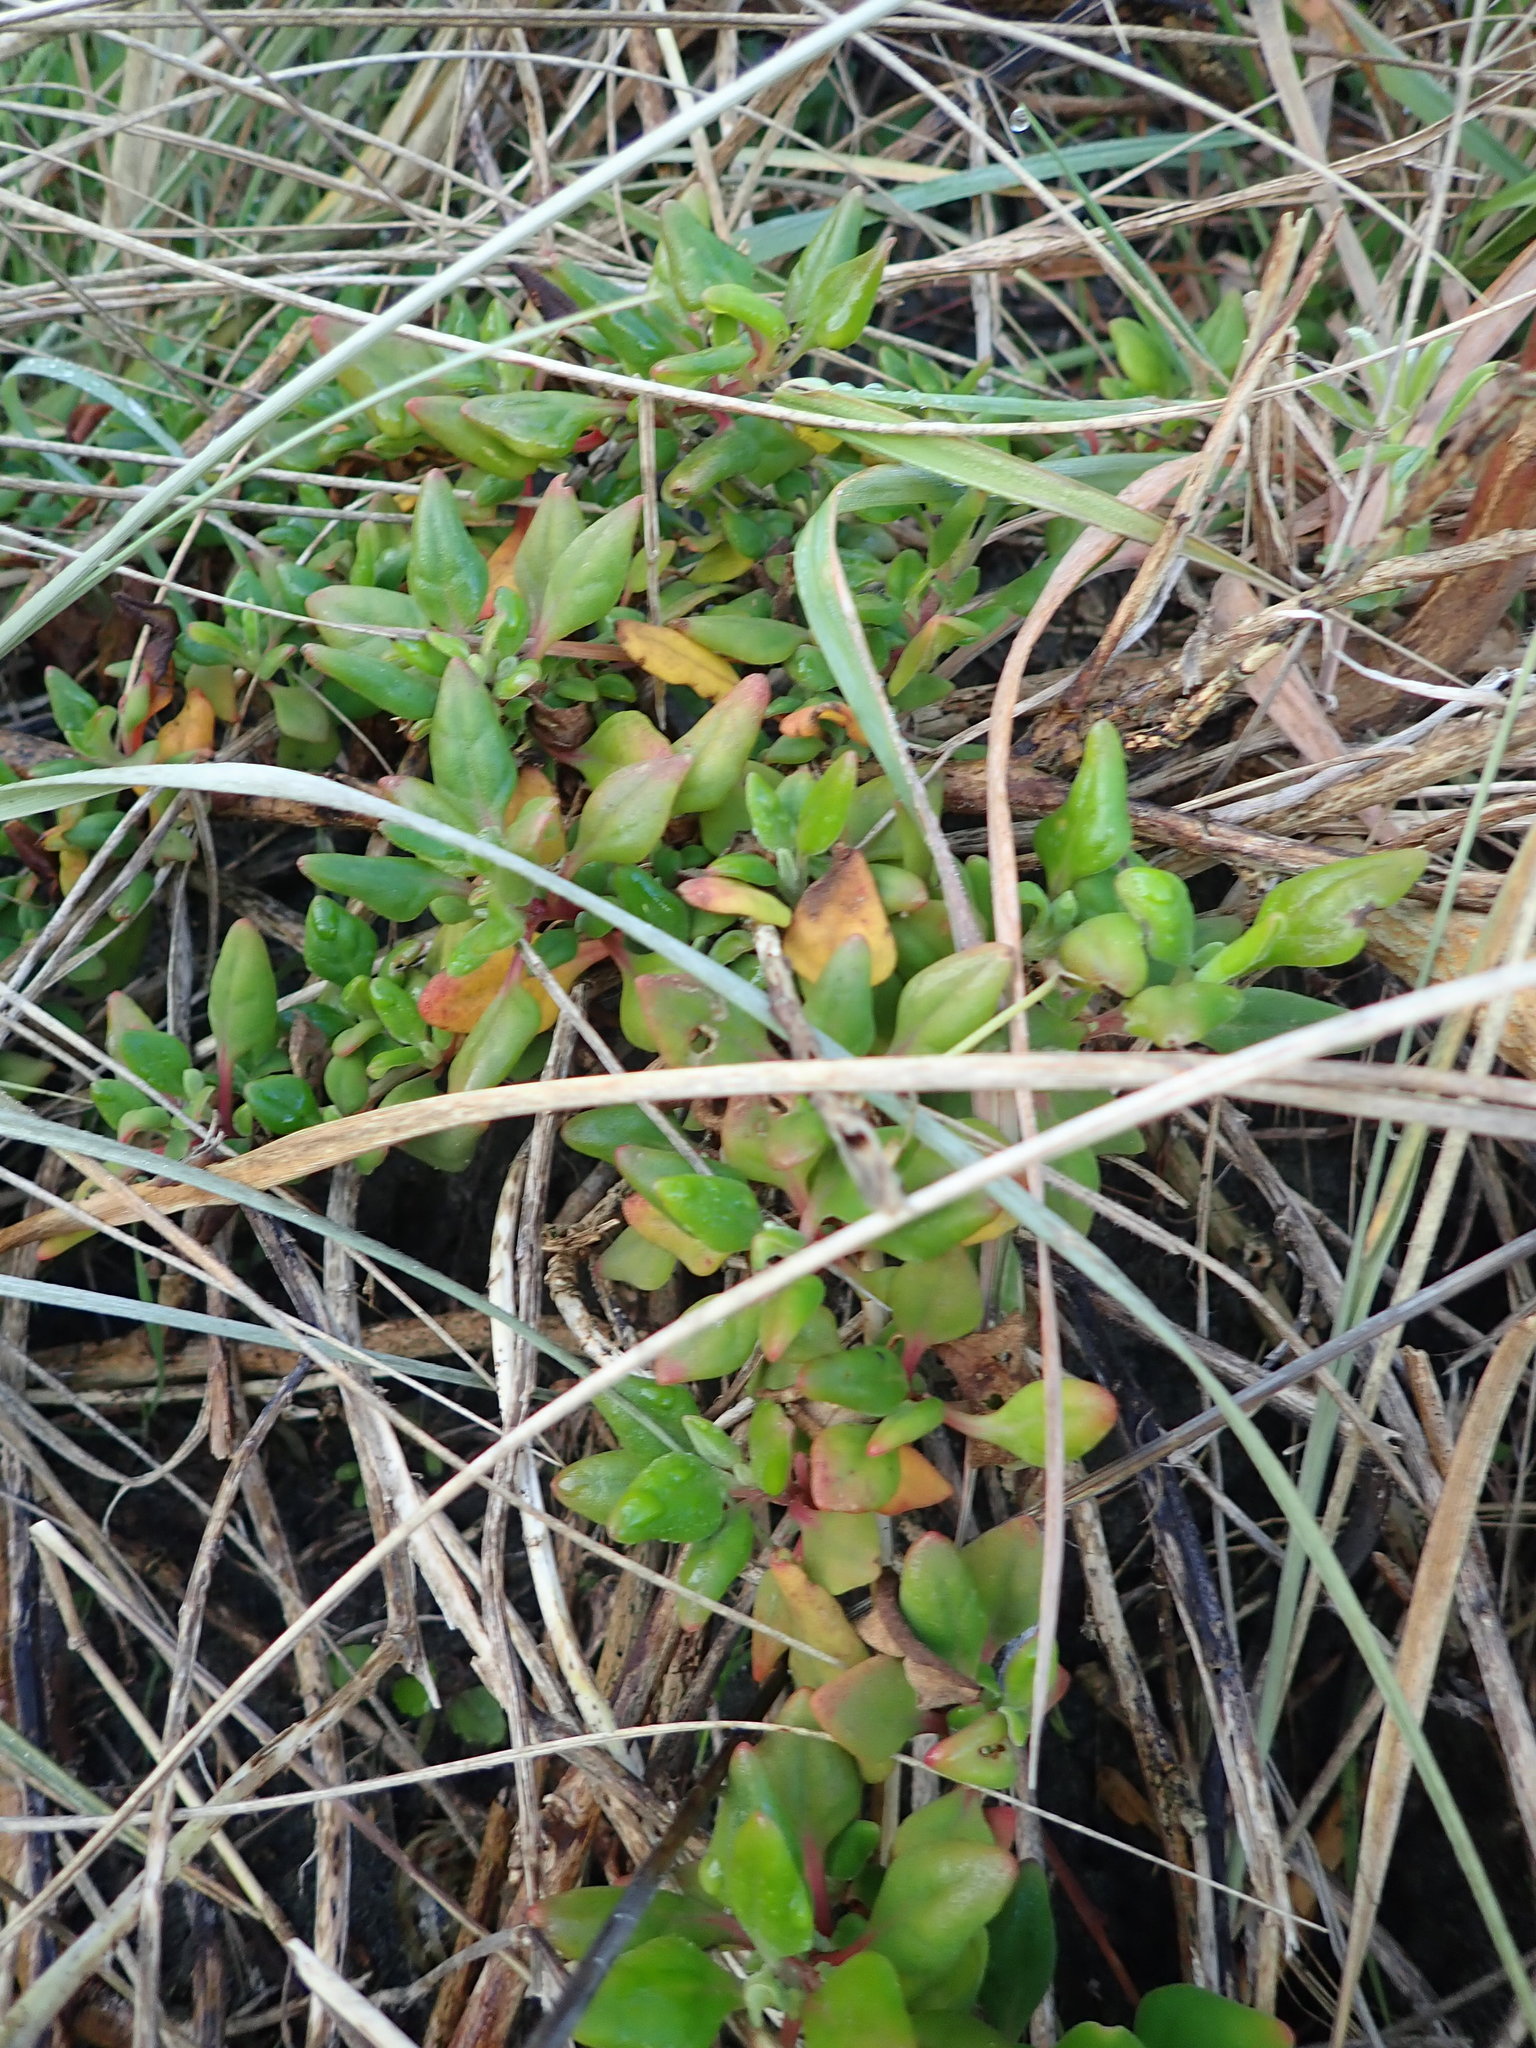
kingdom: Plantae
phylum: Tracheophyta
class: Magnoliopsida
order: Caryophyllales
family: Aizoaceae
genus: Tetragonia
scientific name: Tetragonia implexicoma
